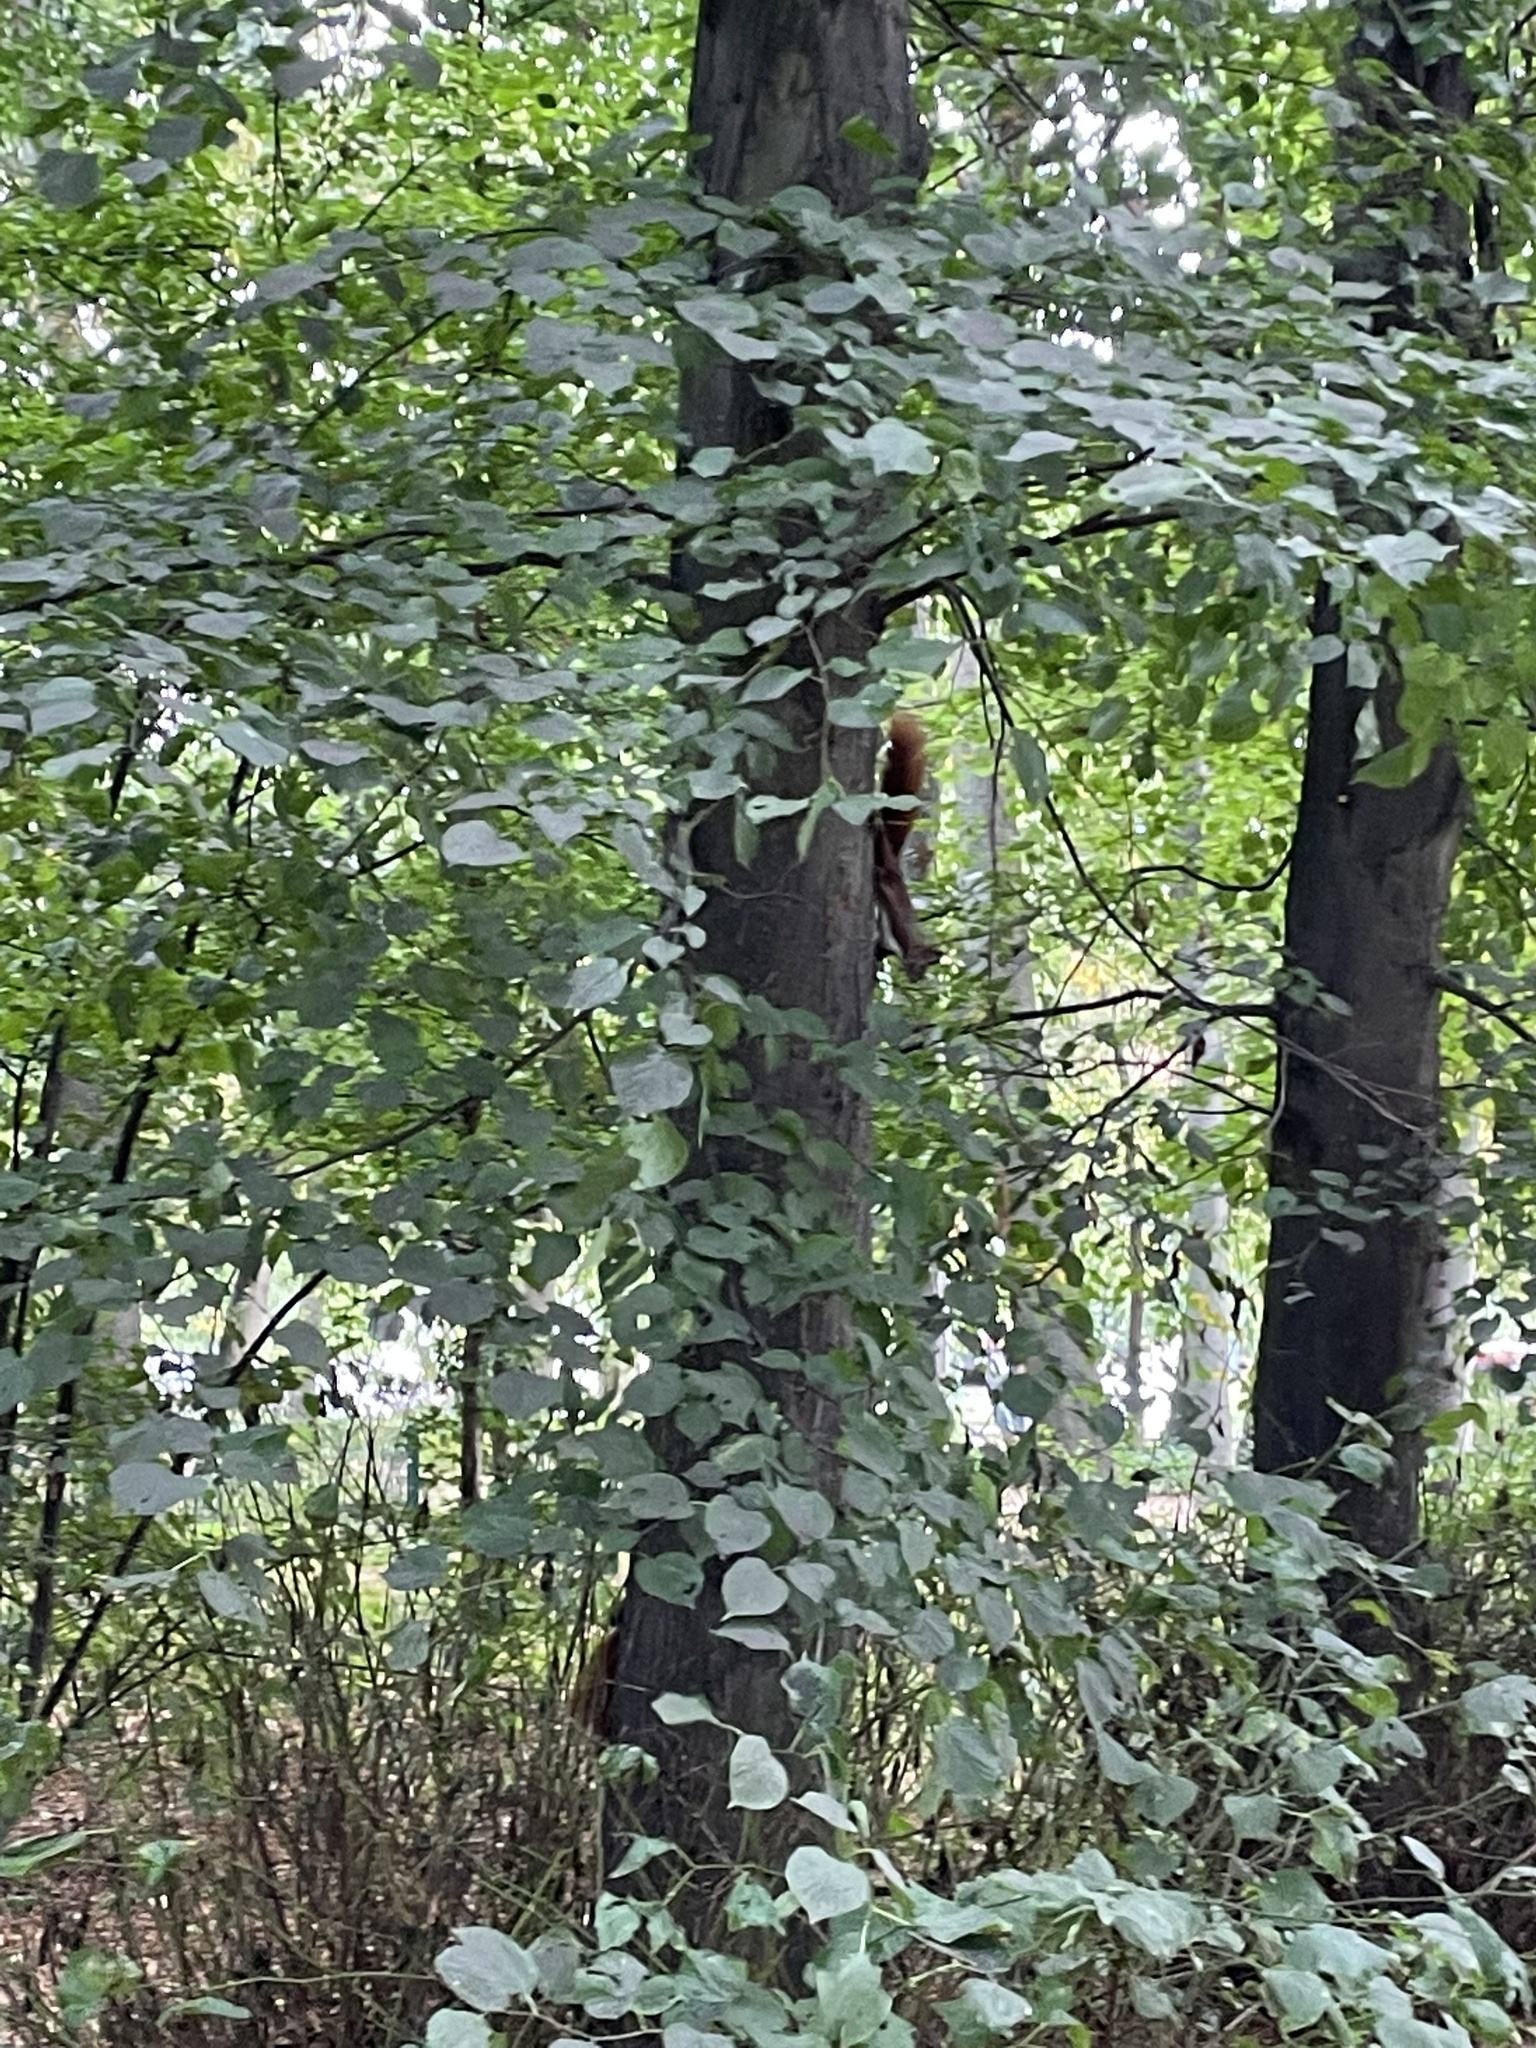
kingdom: Animalia
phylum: Chordata
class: Mammalia
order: Rodentia
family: Sciuridae
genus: Sciurus
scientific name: Sciurus vulgaris
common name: Eurasian red squirrel
